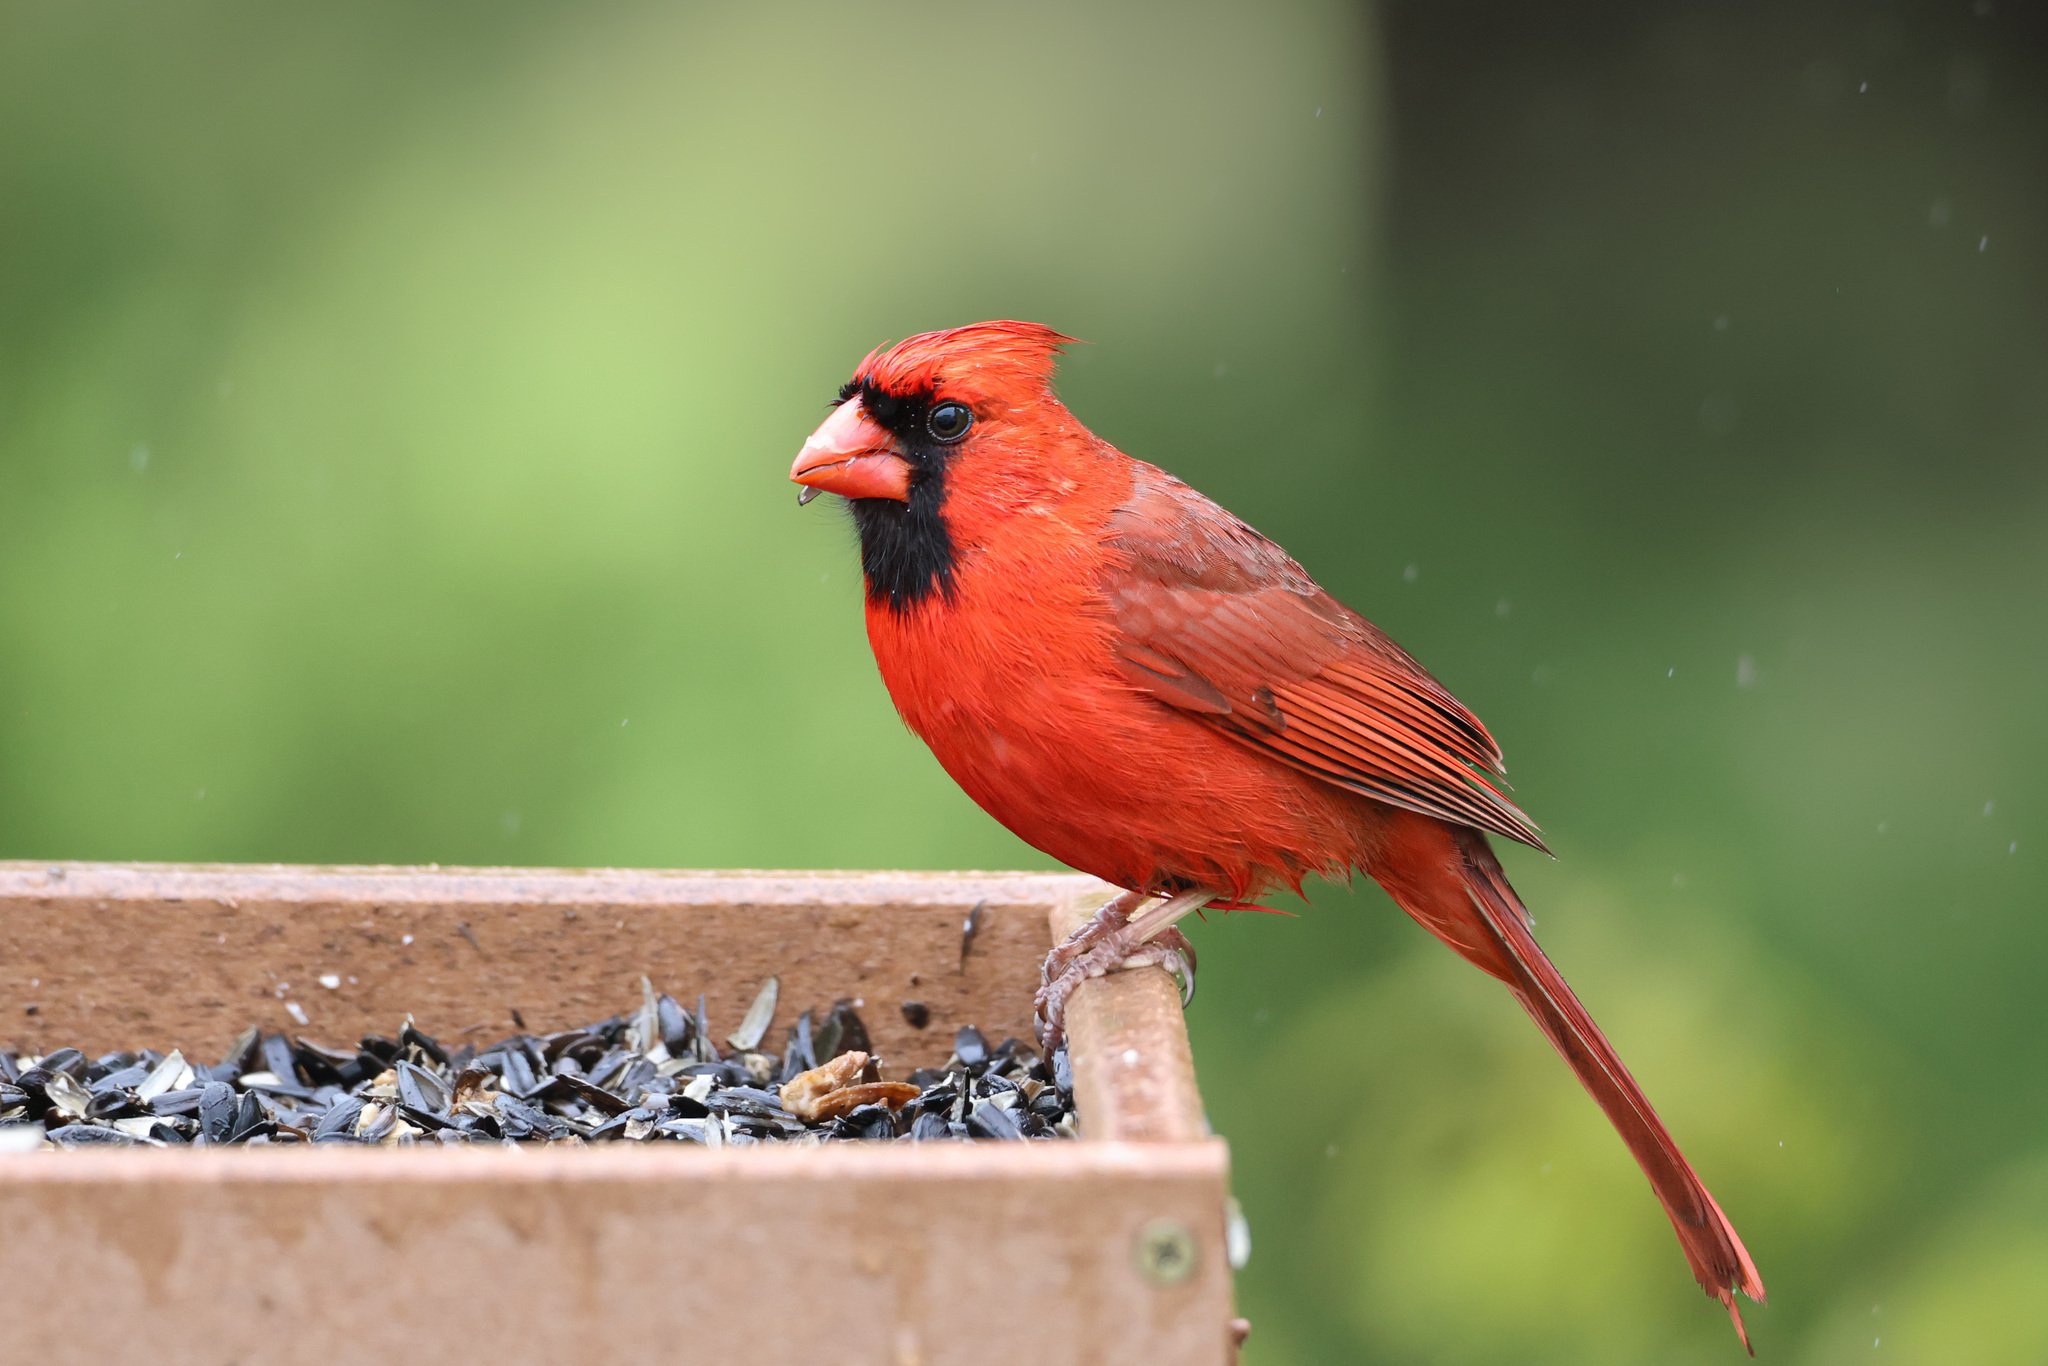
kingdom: Animalia
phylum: Chordata
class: Aves
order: Passeriformes
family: Cardinalidae
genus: Cardinalis
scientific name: Cardinalis cardinalis
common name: Northern cardinal
